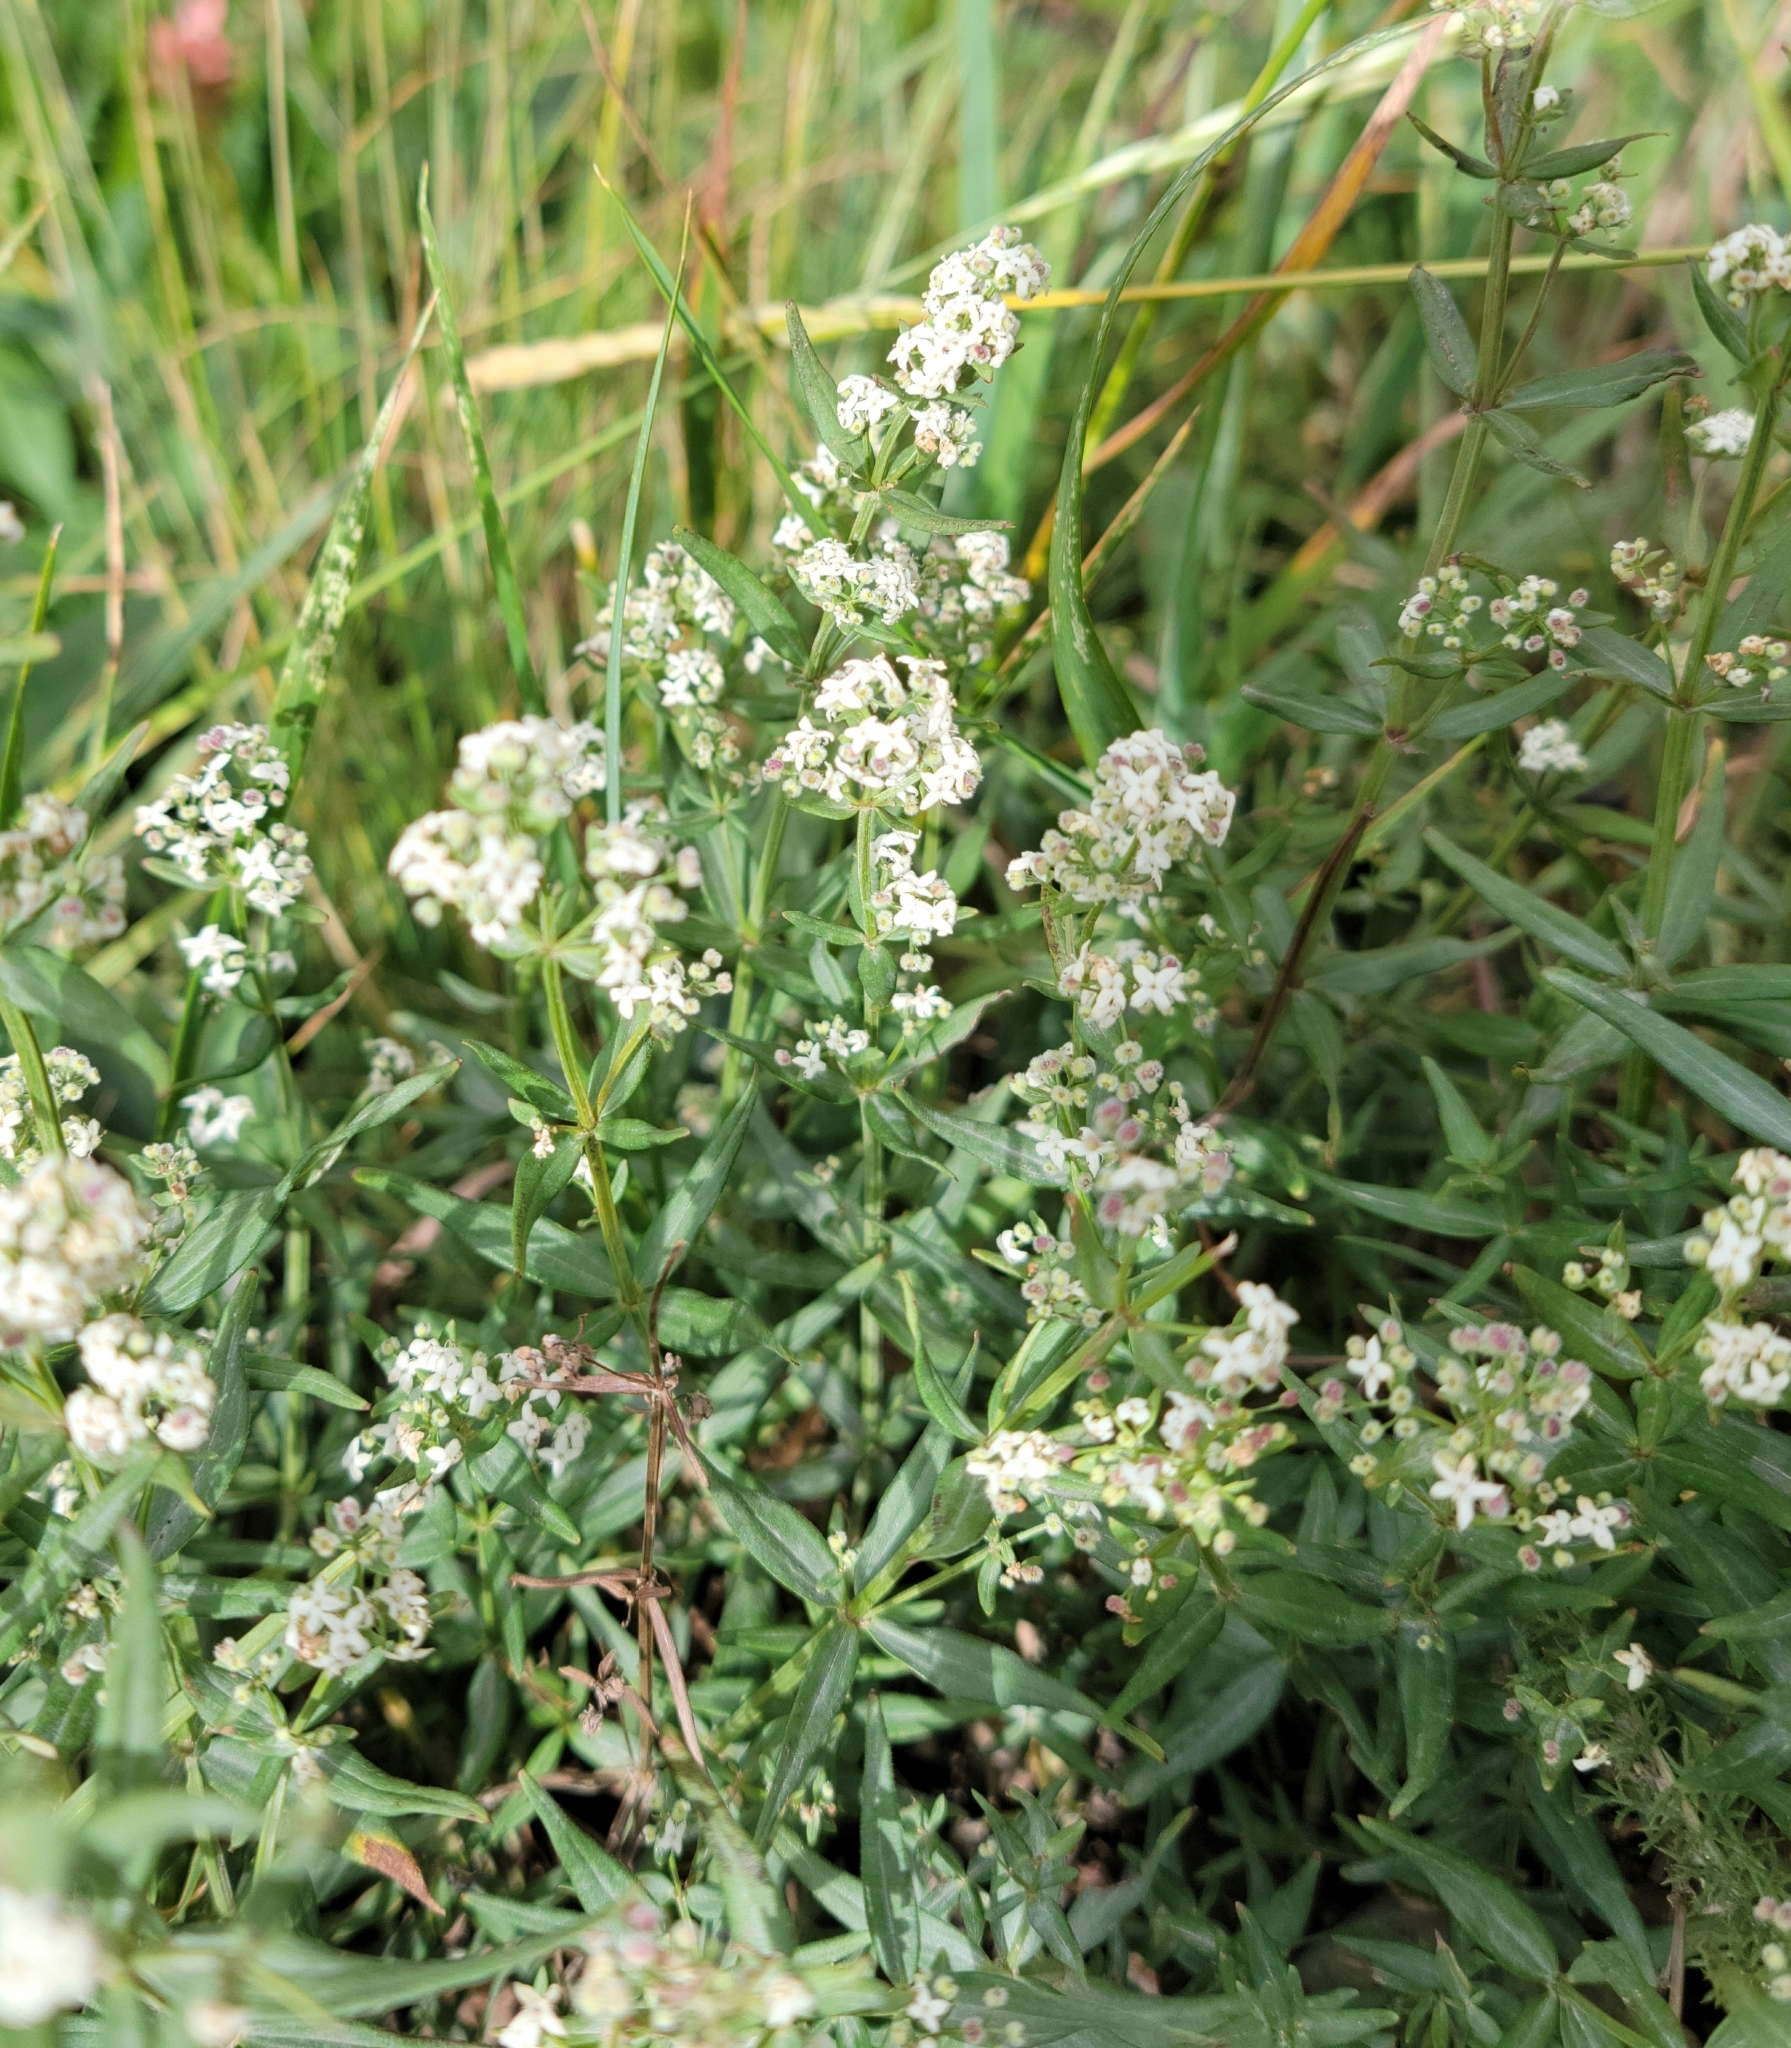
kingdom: Plantae
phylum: Tracheophyta
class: Magnoliopsida
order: Gentianales
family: Rubiaceae
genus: Galium
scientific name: Galium boreale
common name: Northern bedstraw
